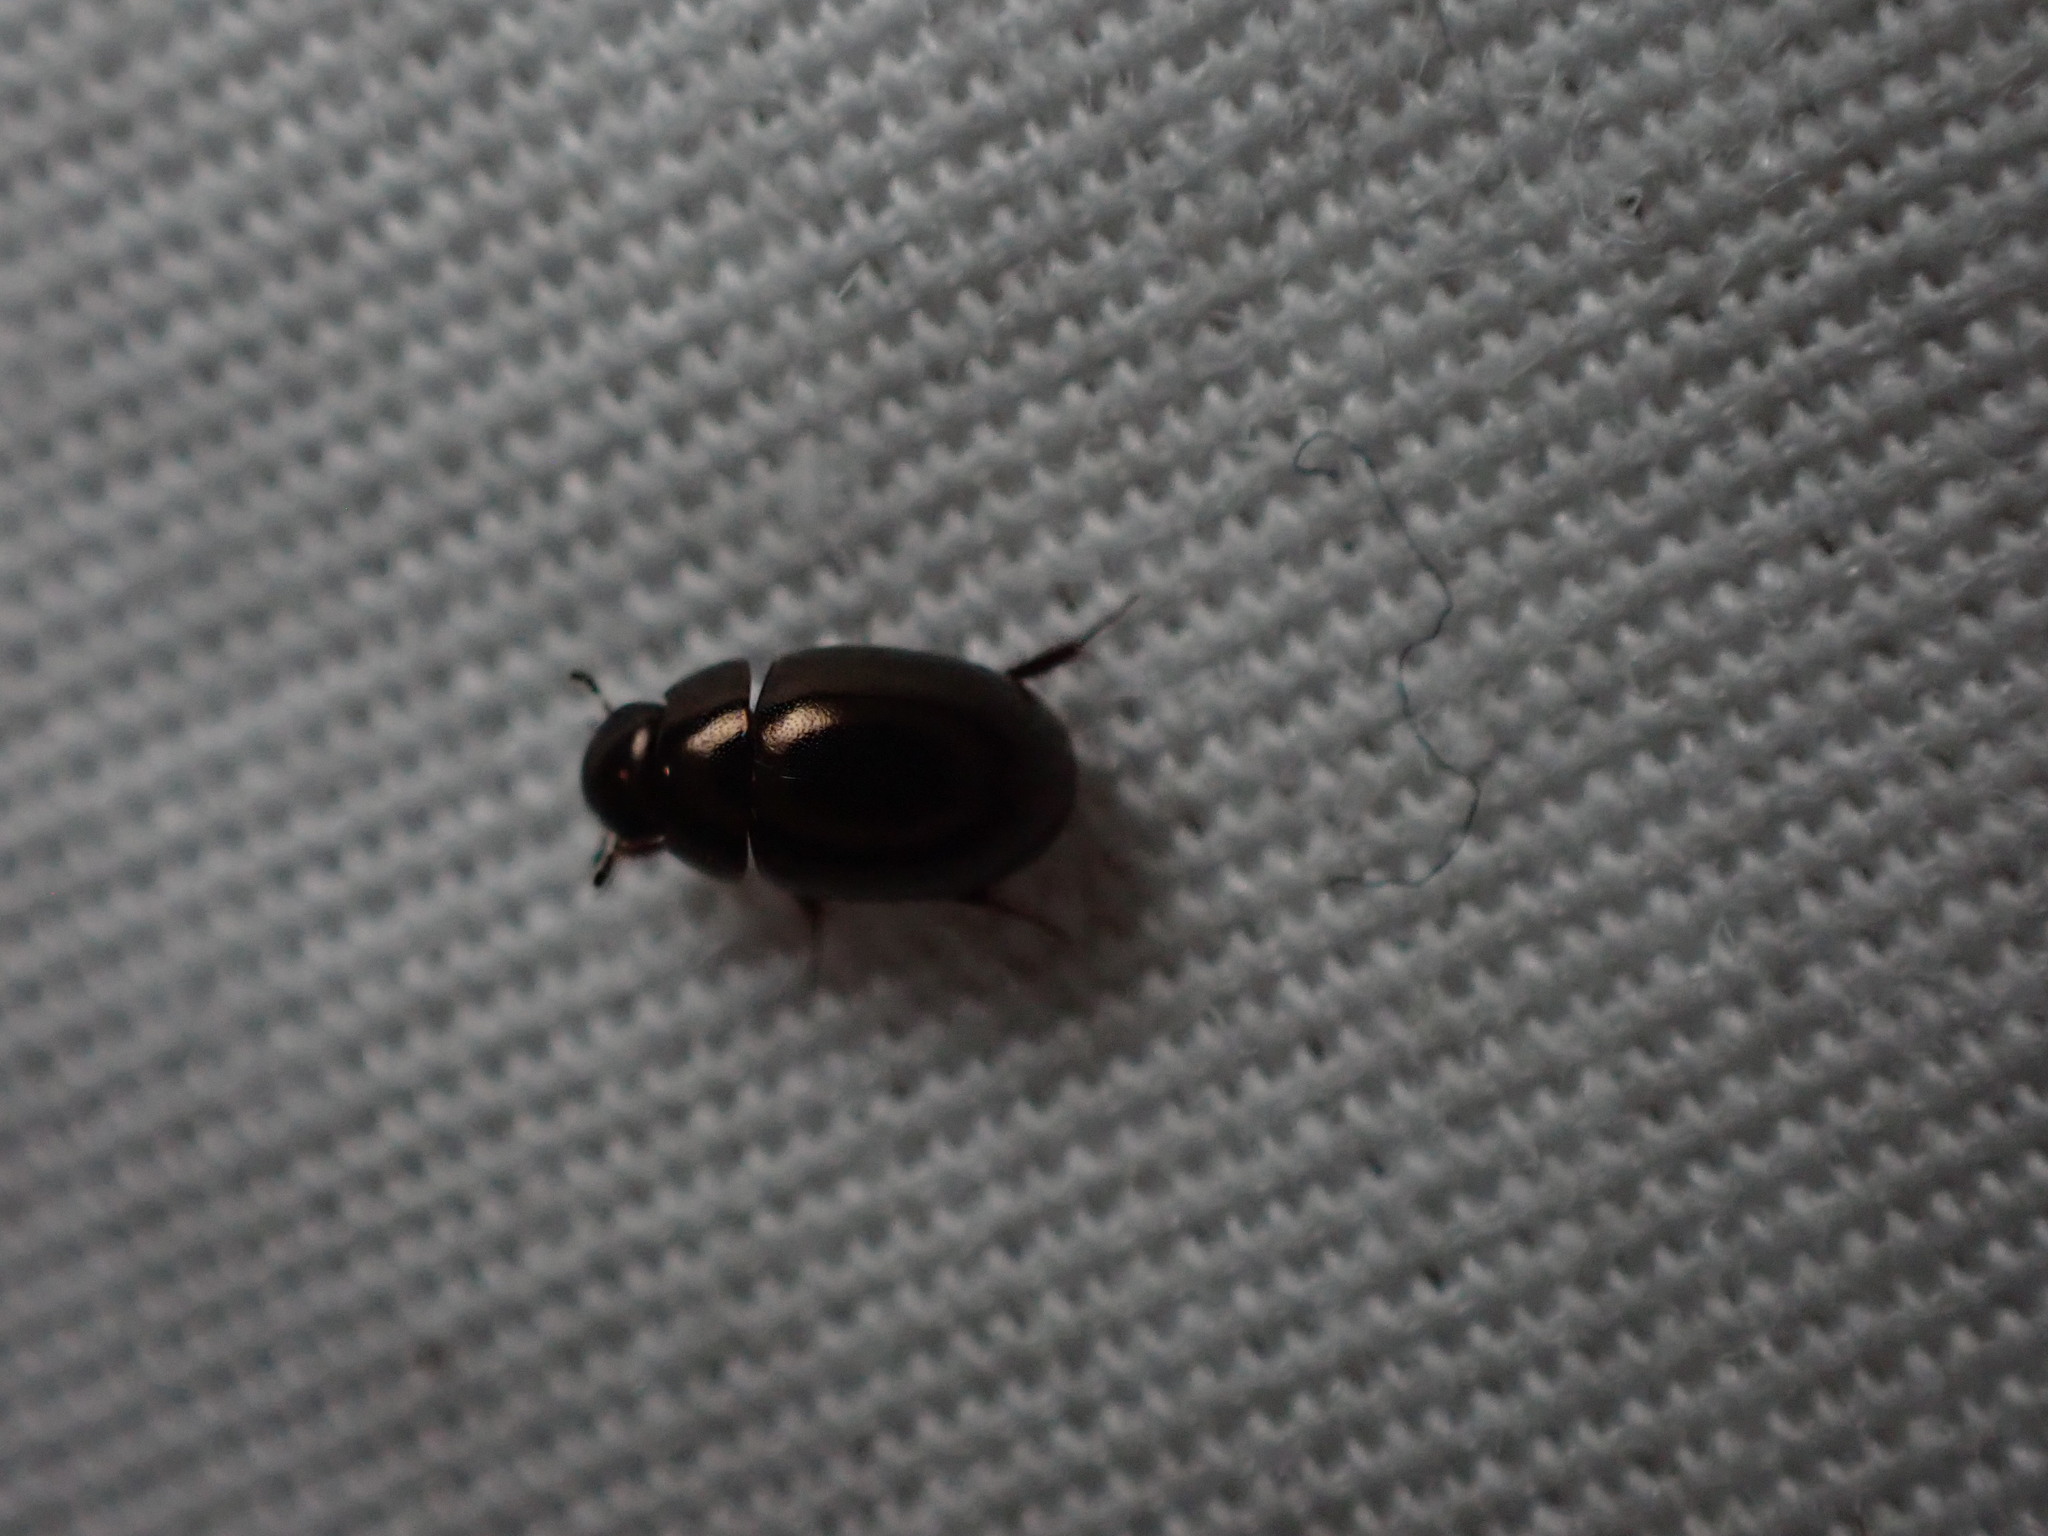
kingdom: Animalia
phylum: Arthropoda
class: Insecta
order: Coleoptera
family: Hydrophilidae
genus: Paracymus
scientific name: Paracymus
